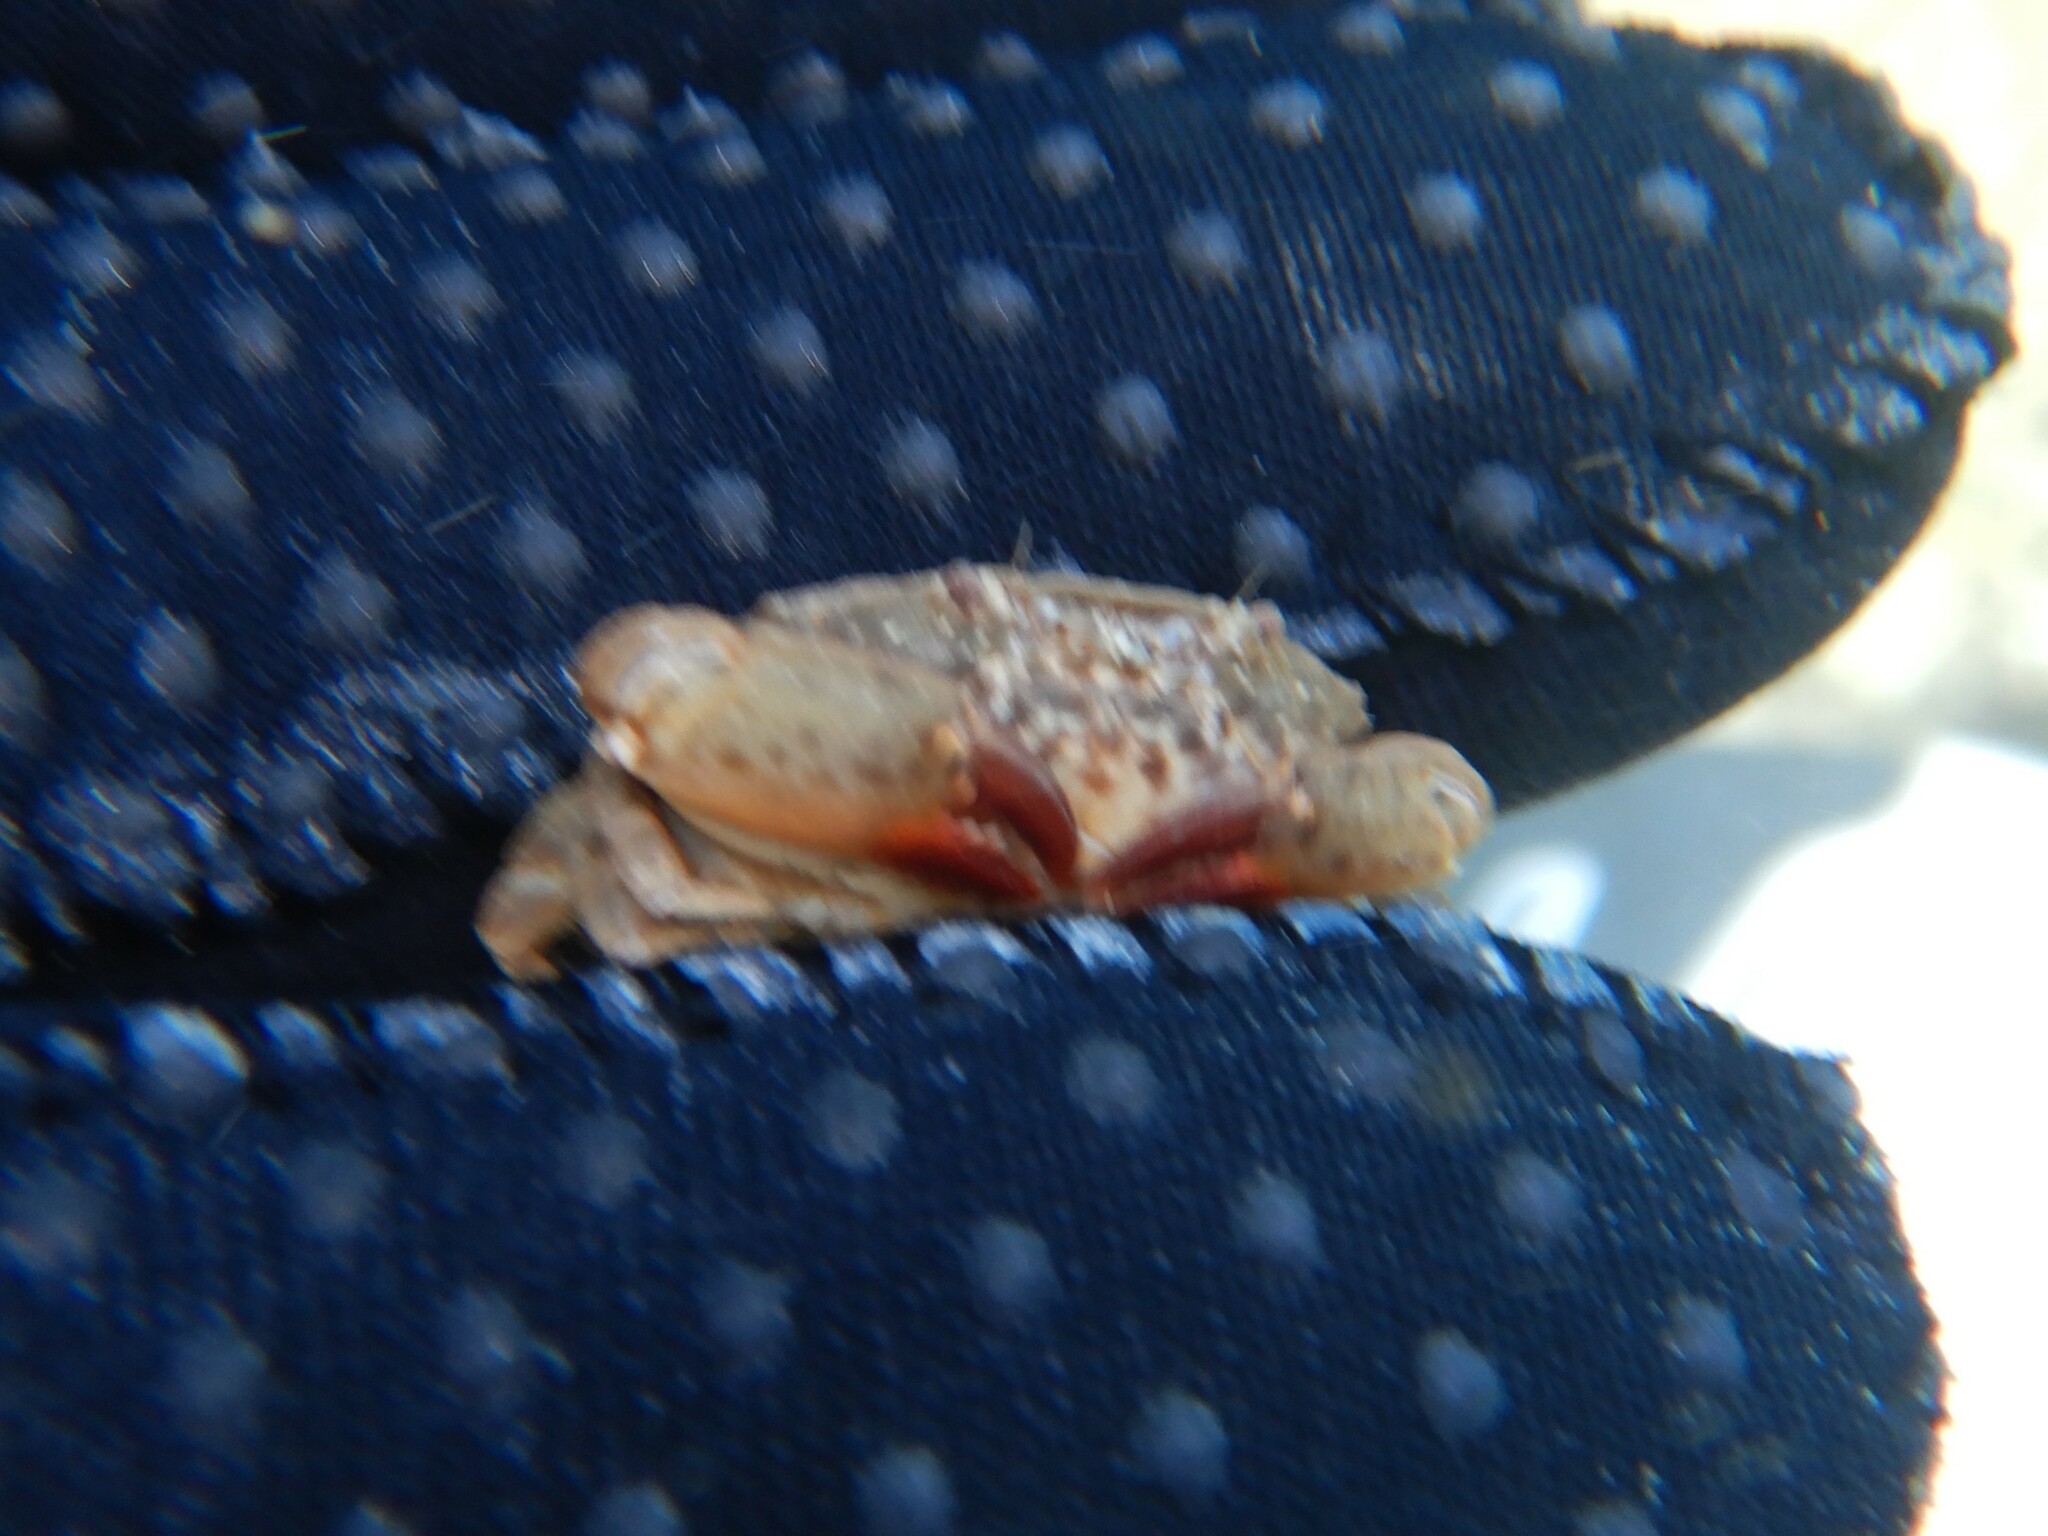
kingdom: Animalia
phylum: Arthropoda
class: Malacostraca
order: Decapoda
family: Xanthidae
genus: Xantho
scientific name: Xantho poressa
